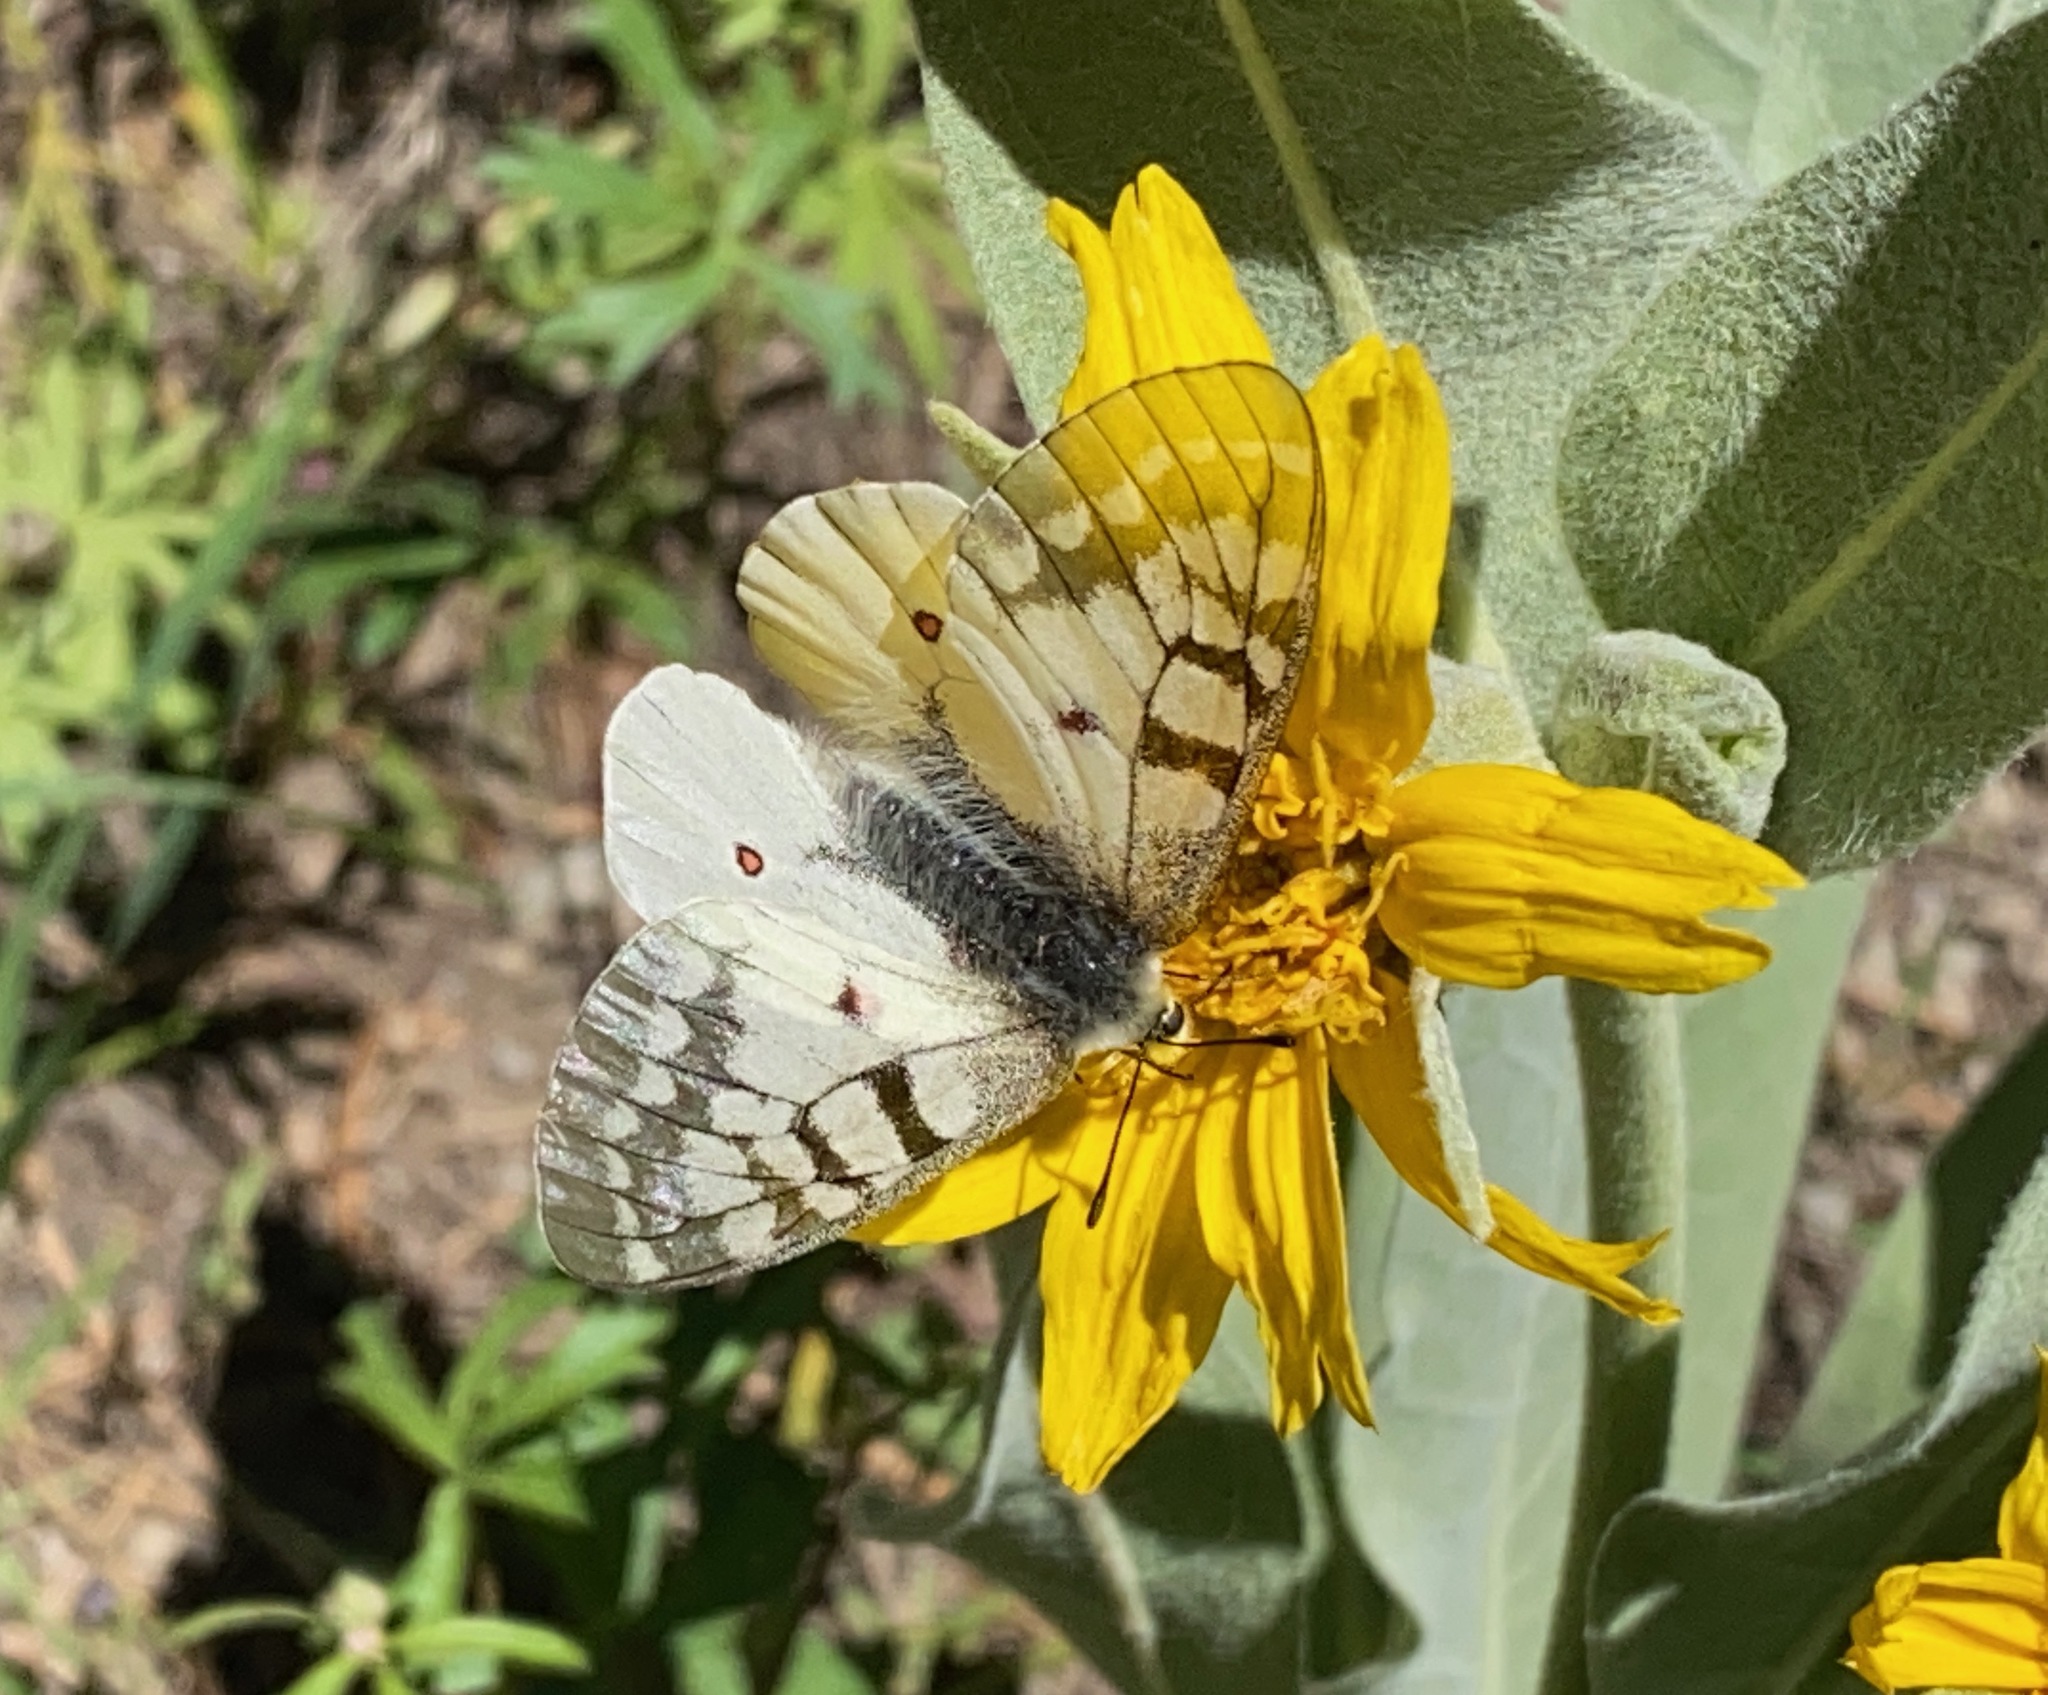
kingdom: Animalia
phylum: Arthropoda
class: Insecta
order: Lepidoptera
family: Papilionidae
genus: Parnassius
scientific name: Parnassius clodius
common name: American apollo
